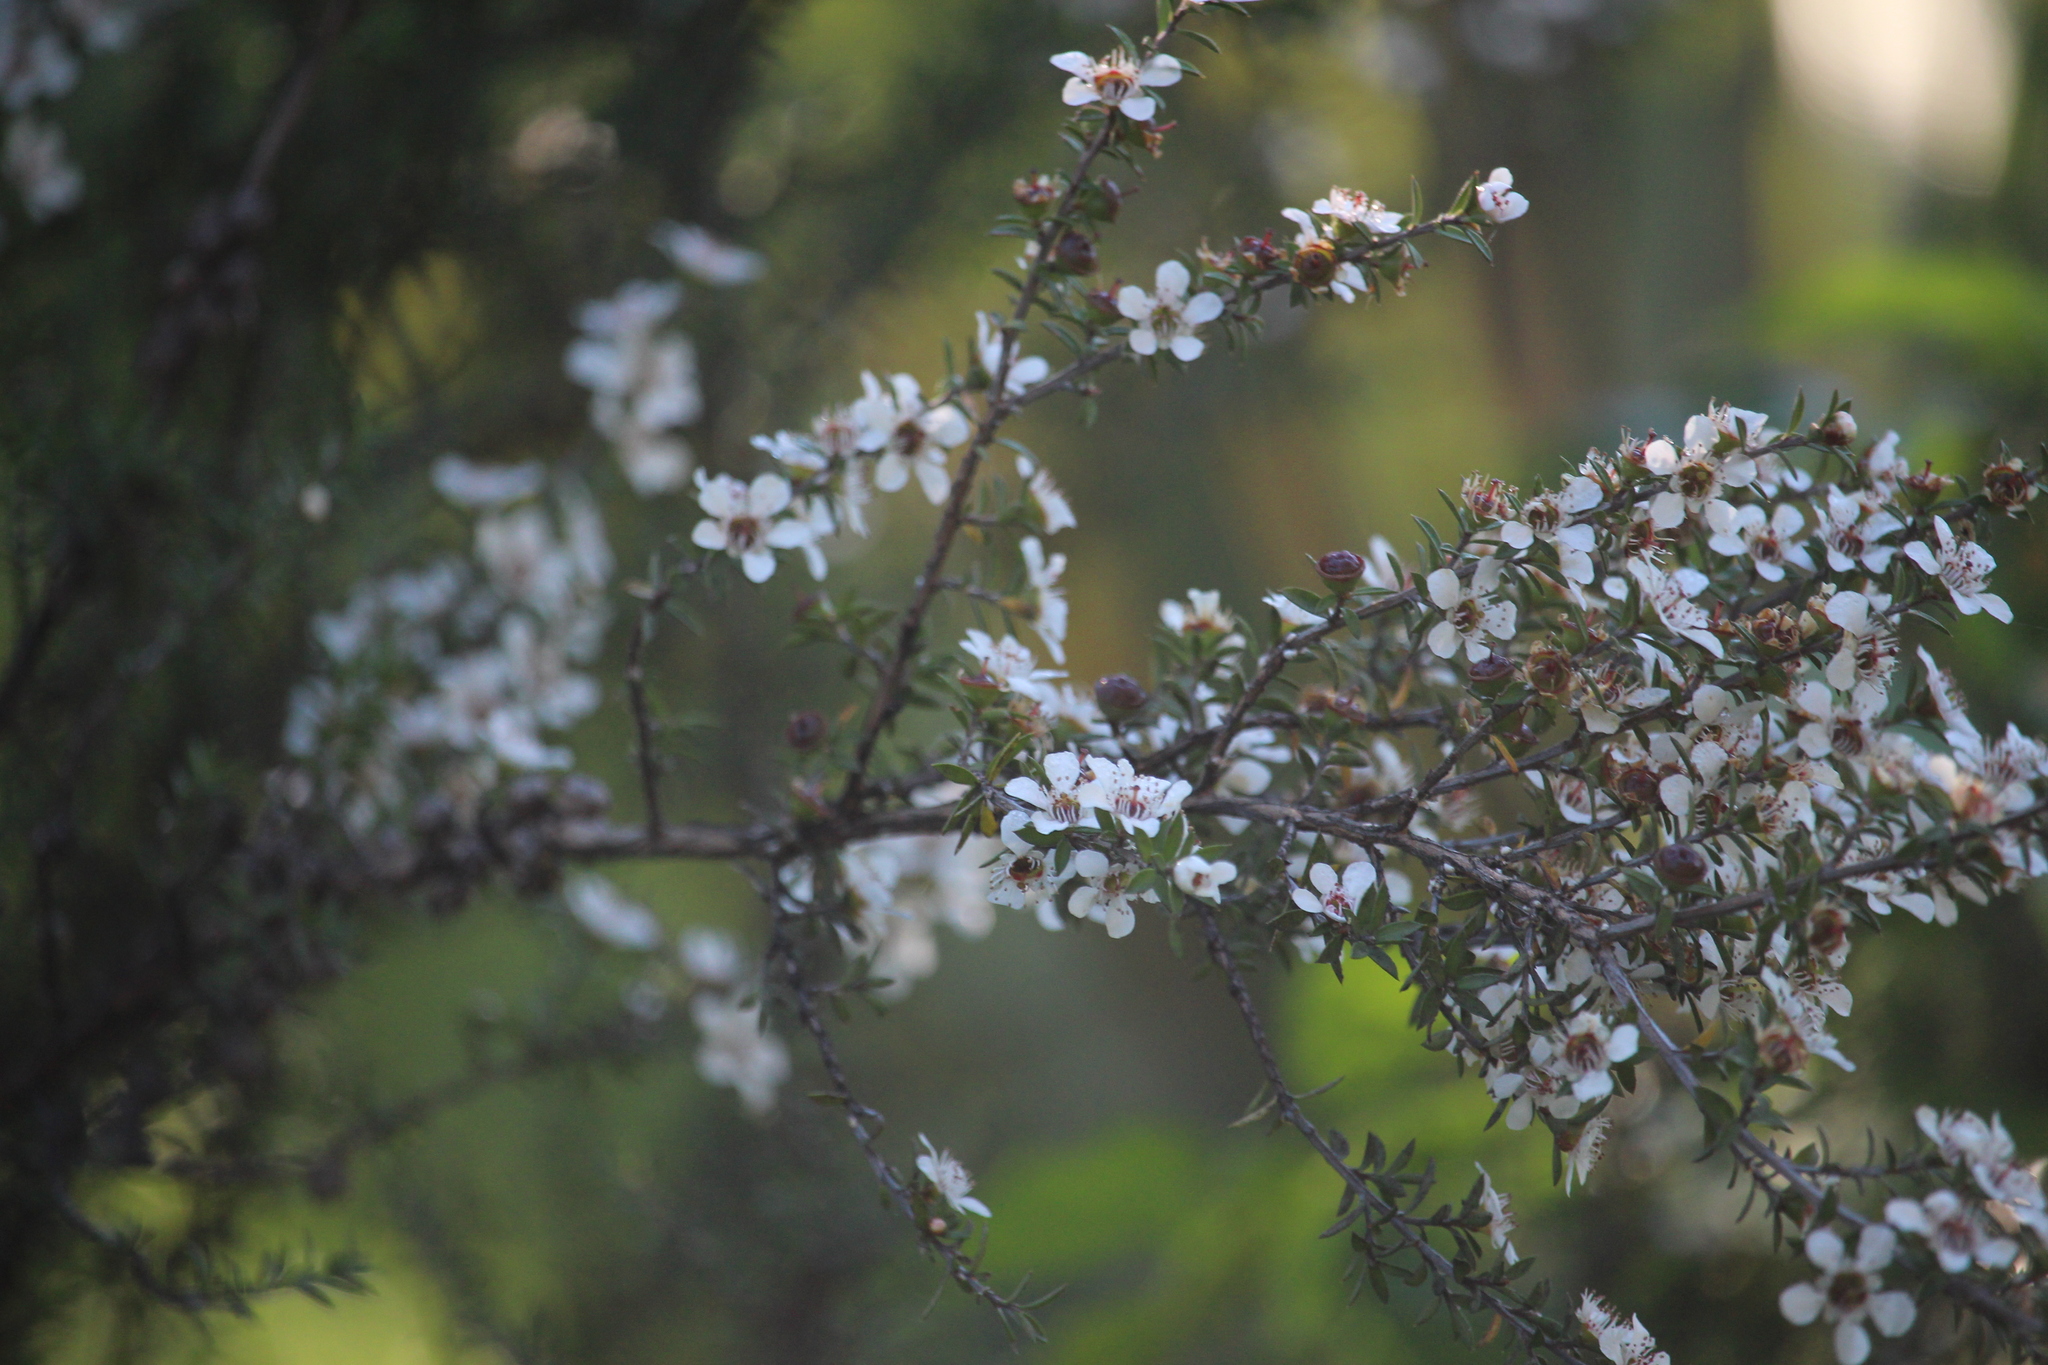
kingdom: Plantae
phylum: Tracheophyta
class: Magnoliopsida
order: Myrtales
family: Myrtaceae
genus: Leptospermum
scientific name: Leptospermum scoparium
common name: Broom tea-tree
